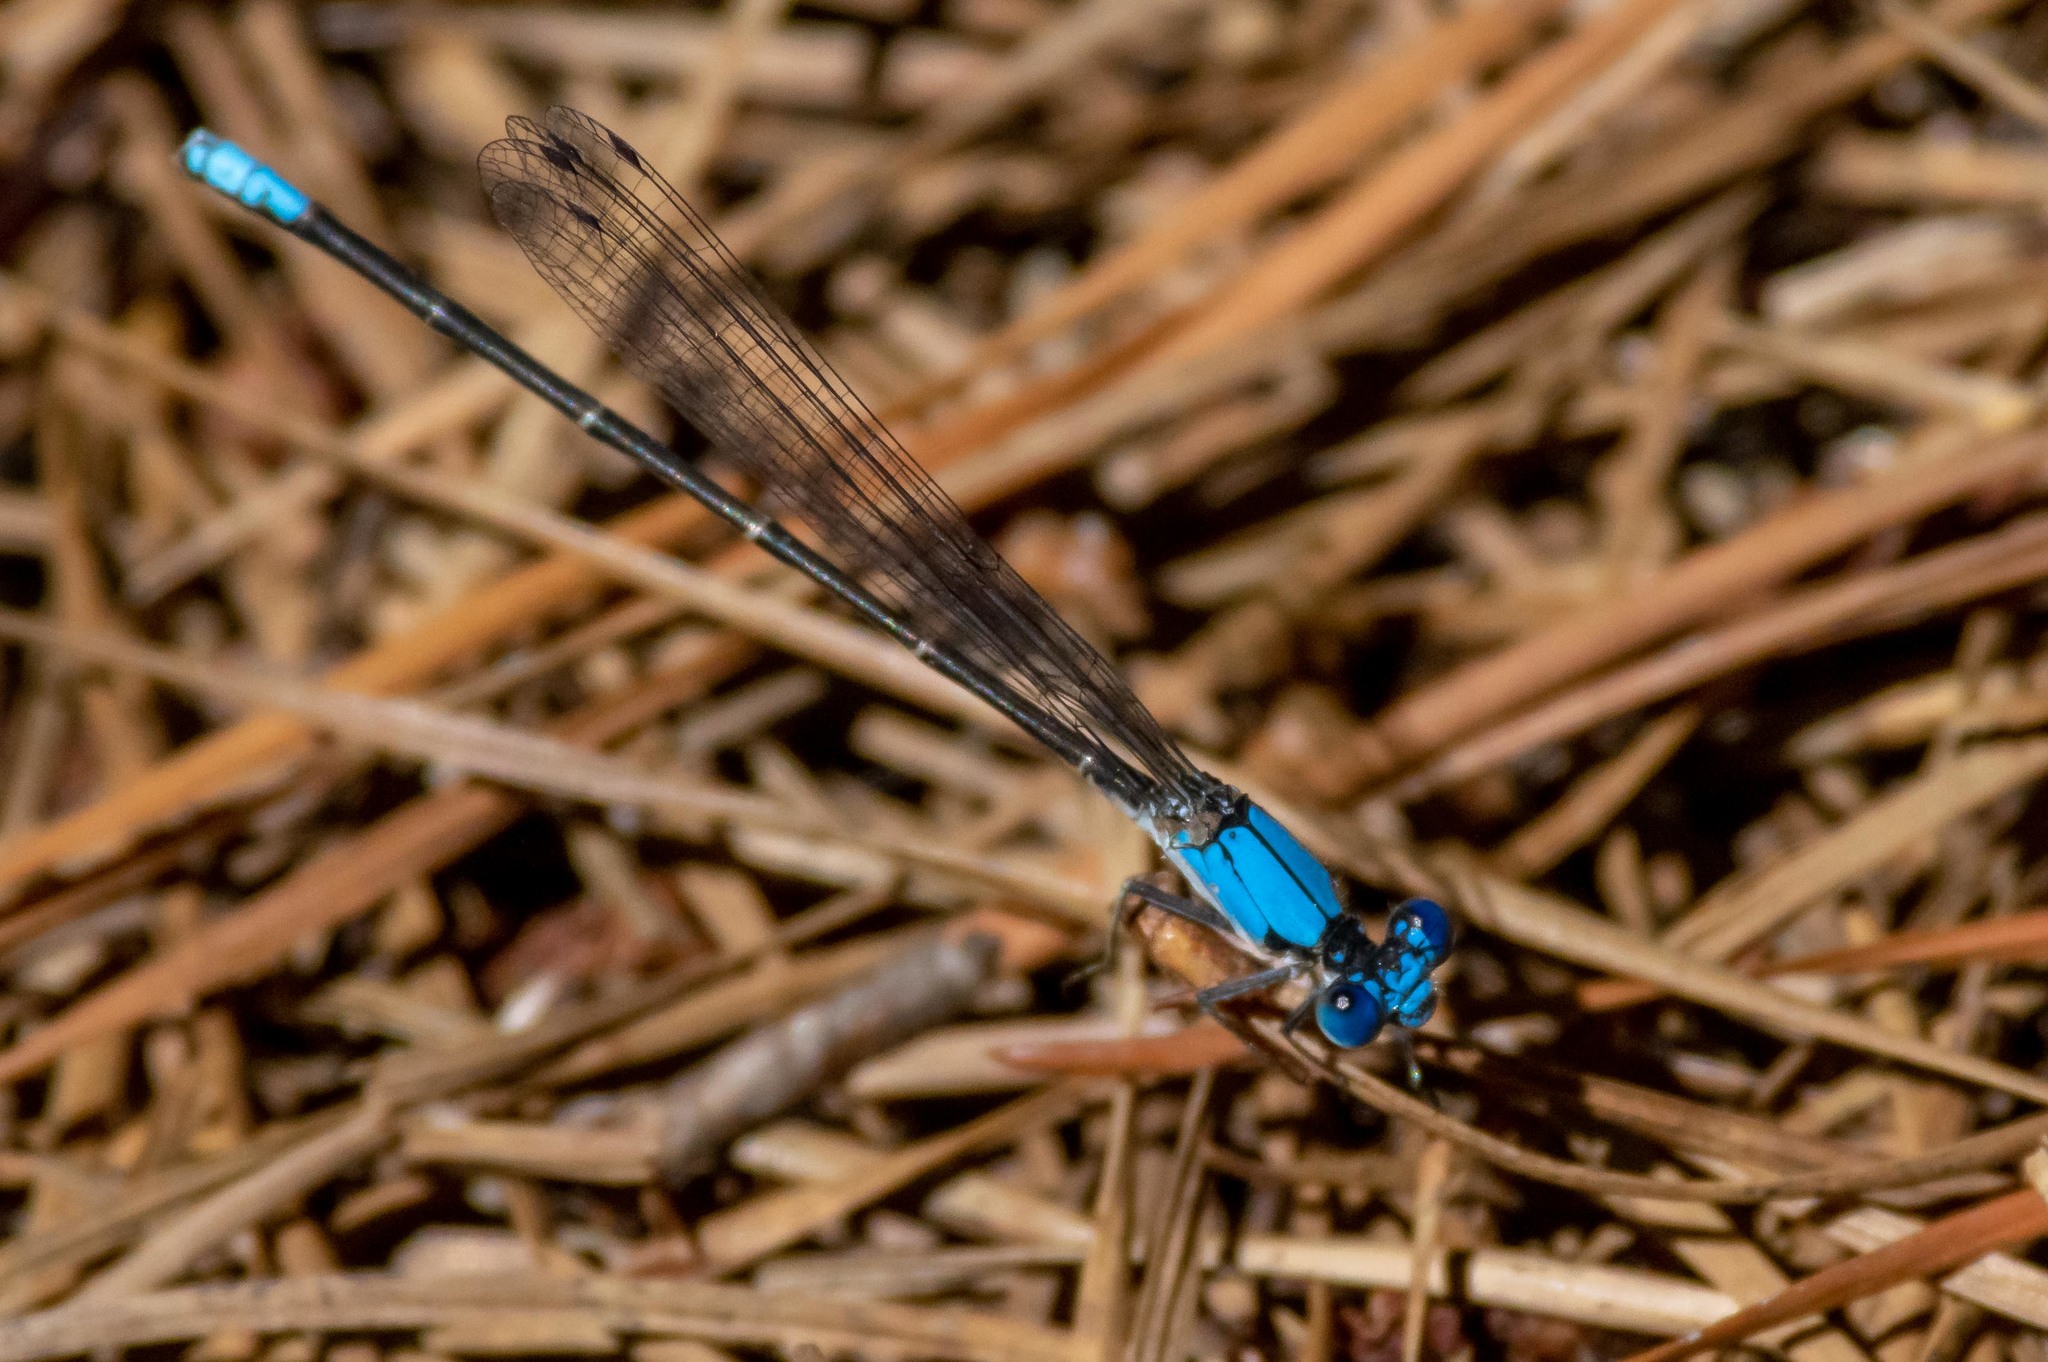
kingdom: Animalia
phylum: Arthropoda
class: Insecta
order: Odonata
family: Coenagrionidae
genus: Argia
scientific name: Argia apicalis
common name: Blue-fronted dancer
